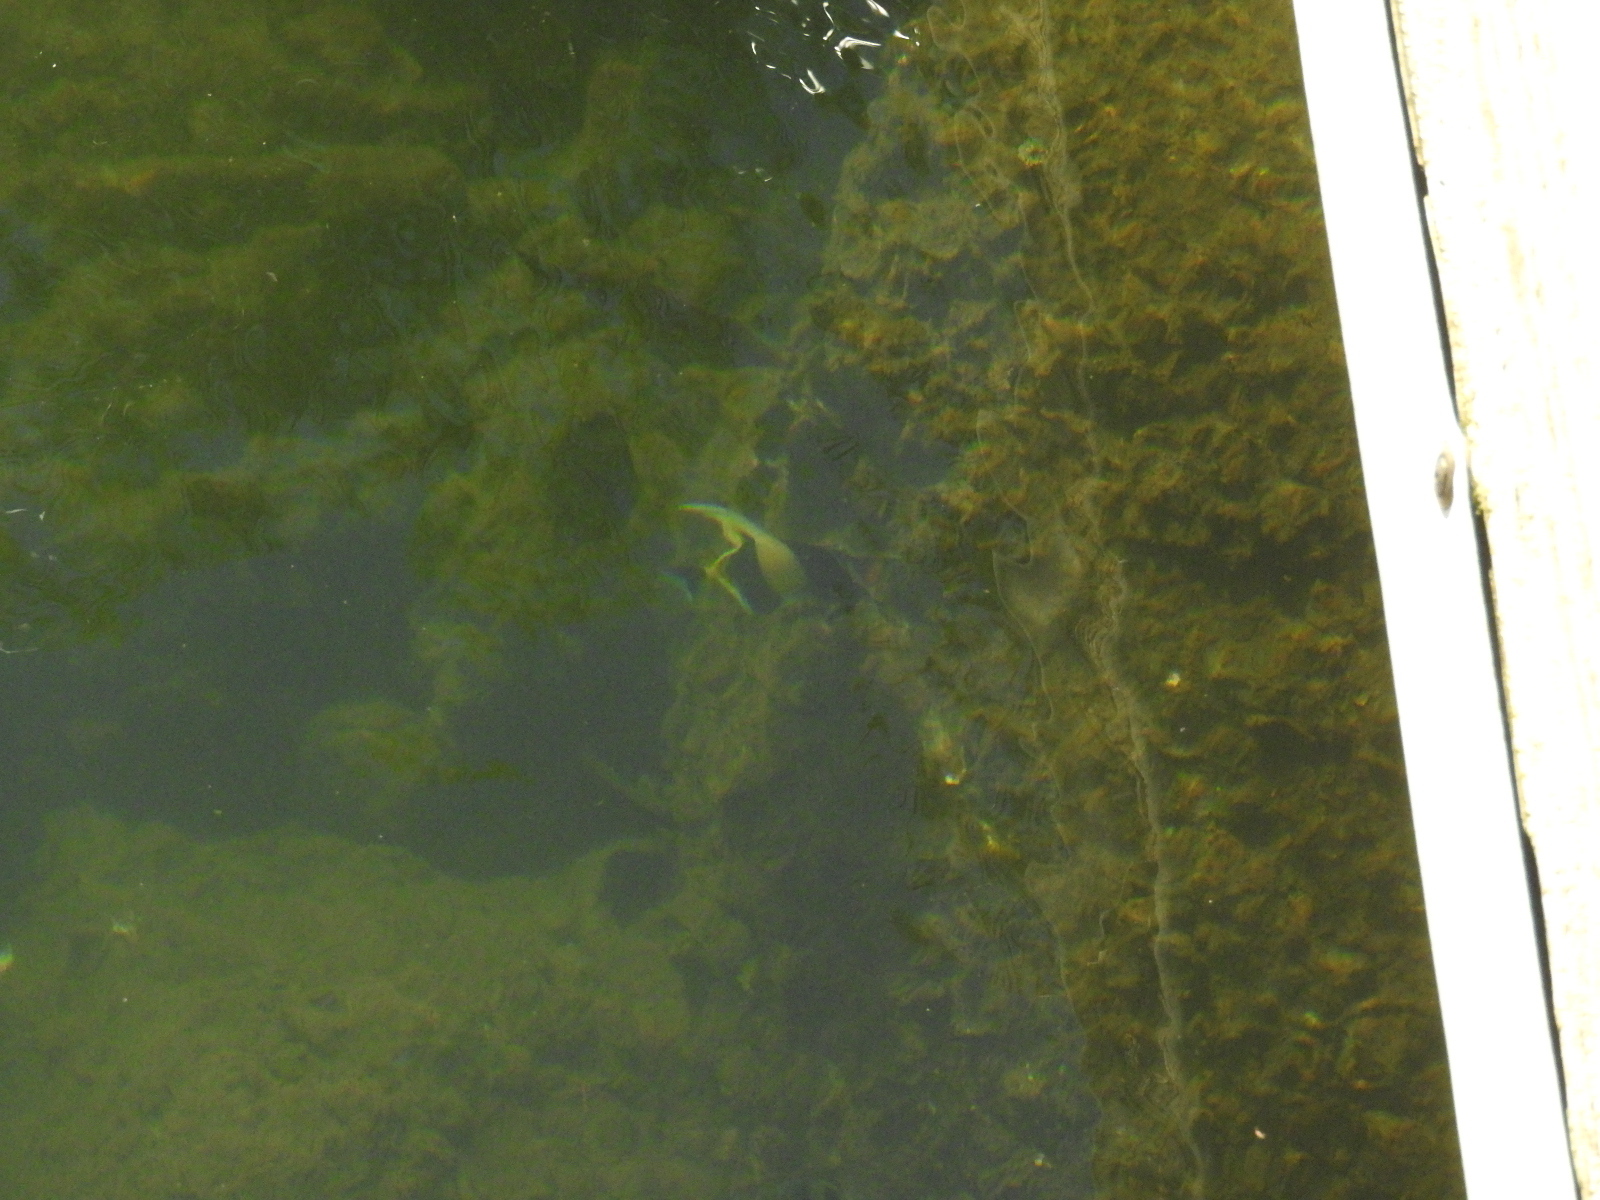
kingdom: Animalia
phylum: Chordata
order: Perciformes
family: Zanclidae
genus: Zanclus
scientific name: Zanclus cornutus
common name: Moorish idol
